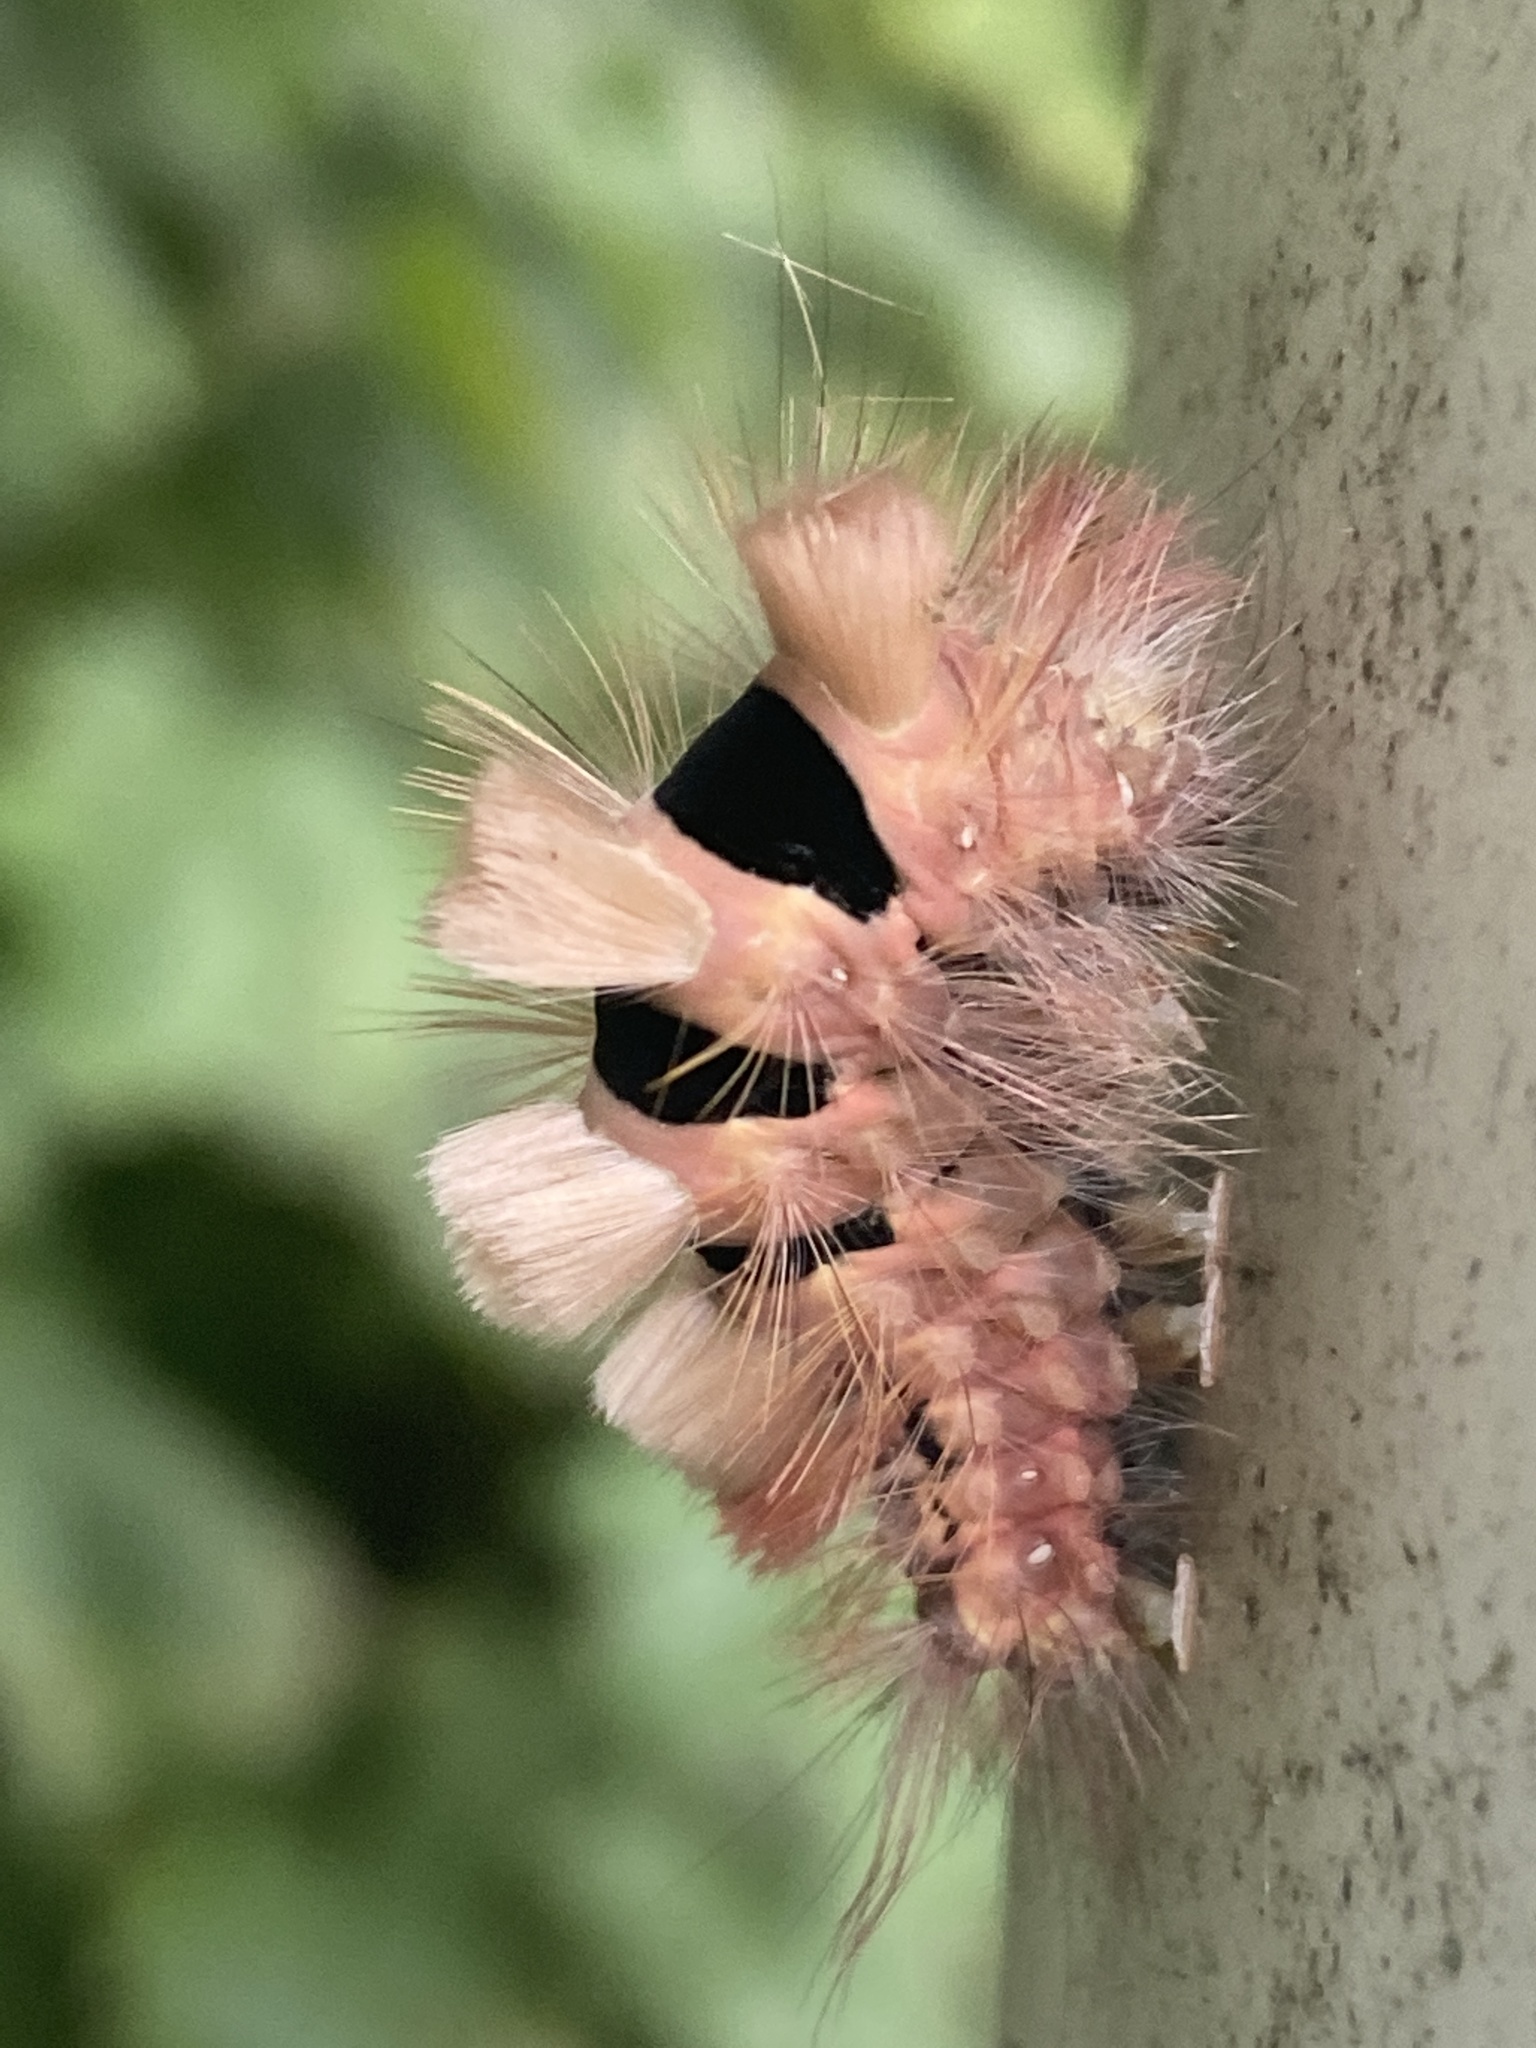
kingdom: Animalia
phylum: Arthropoda
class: Insecta
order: Lepidoptera
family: Erebidae
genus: Calliteara
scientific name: Calliteara pudibunda
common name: Pale tussock
